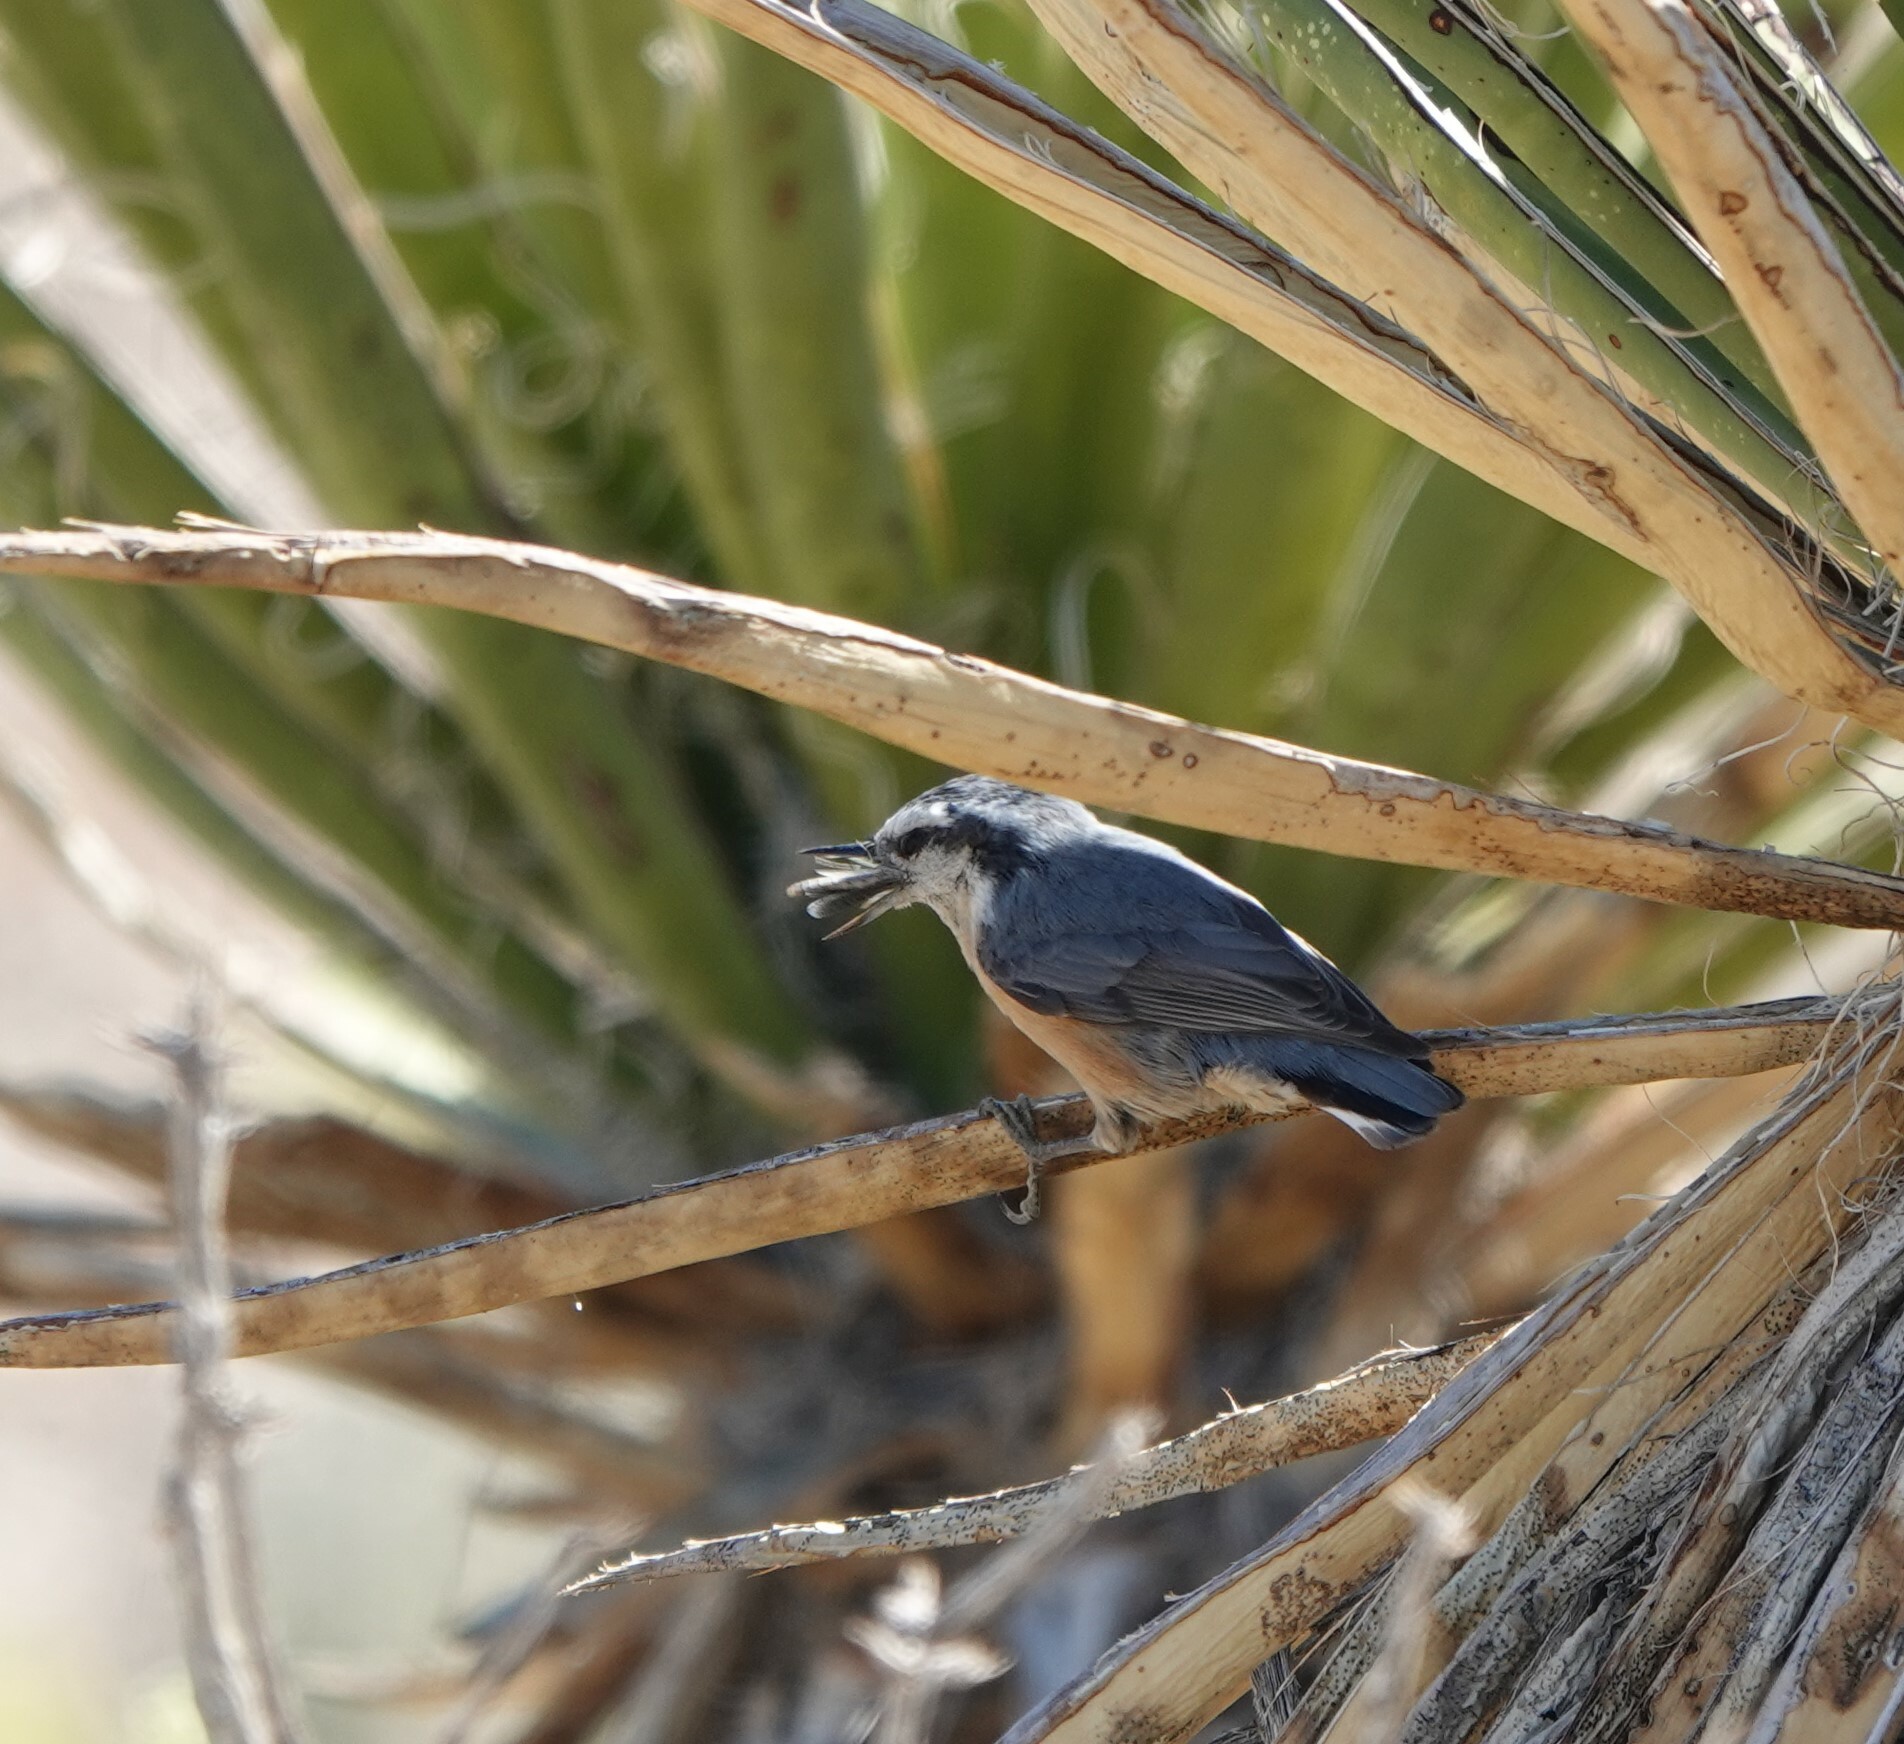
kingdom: Animalia
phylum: Chordata
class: Aves
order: Passeriformes
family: Sittidae
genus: Sitta
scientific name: Sitta canadensis
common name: Red-breasted nuthatch
